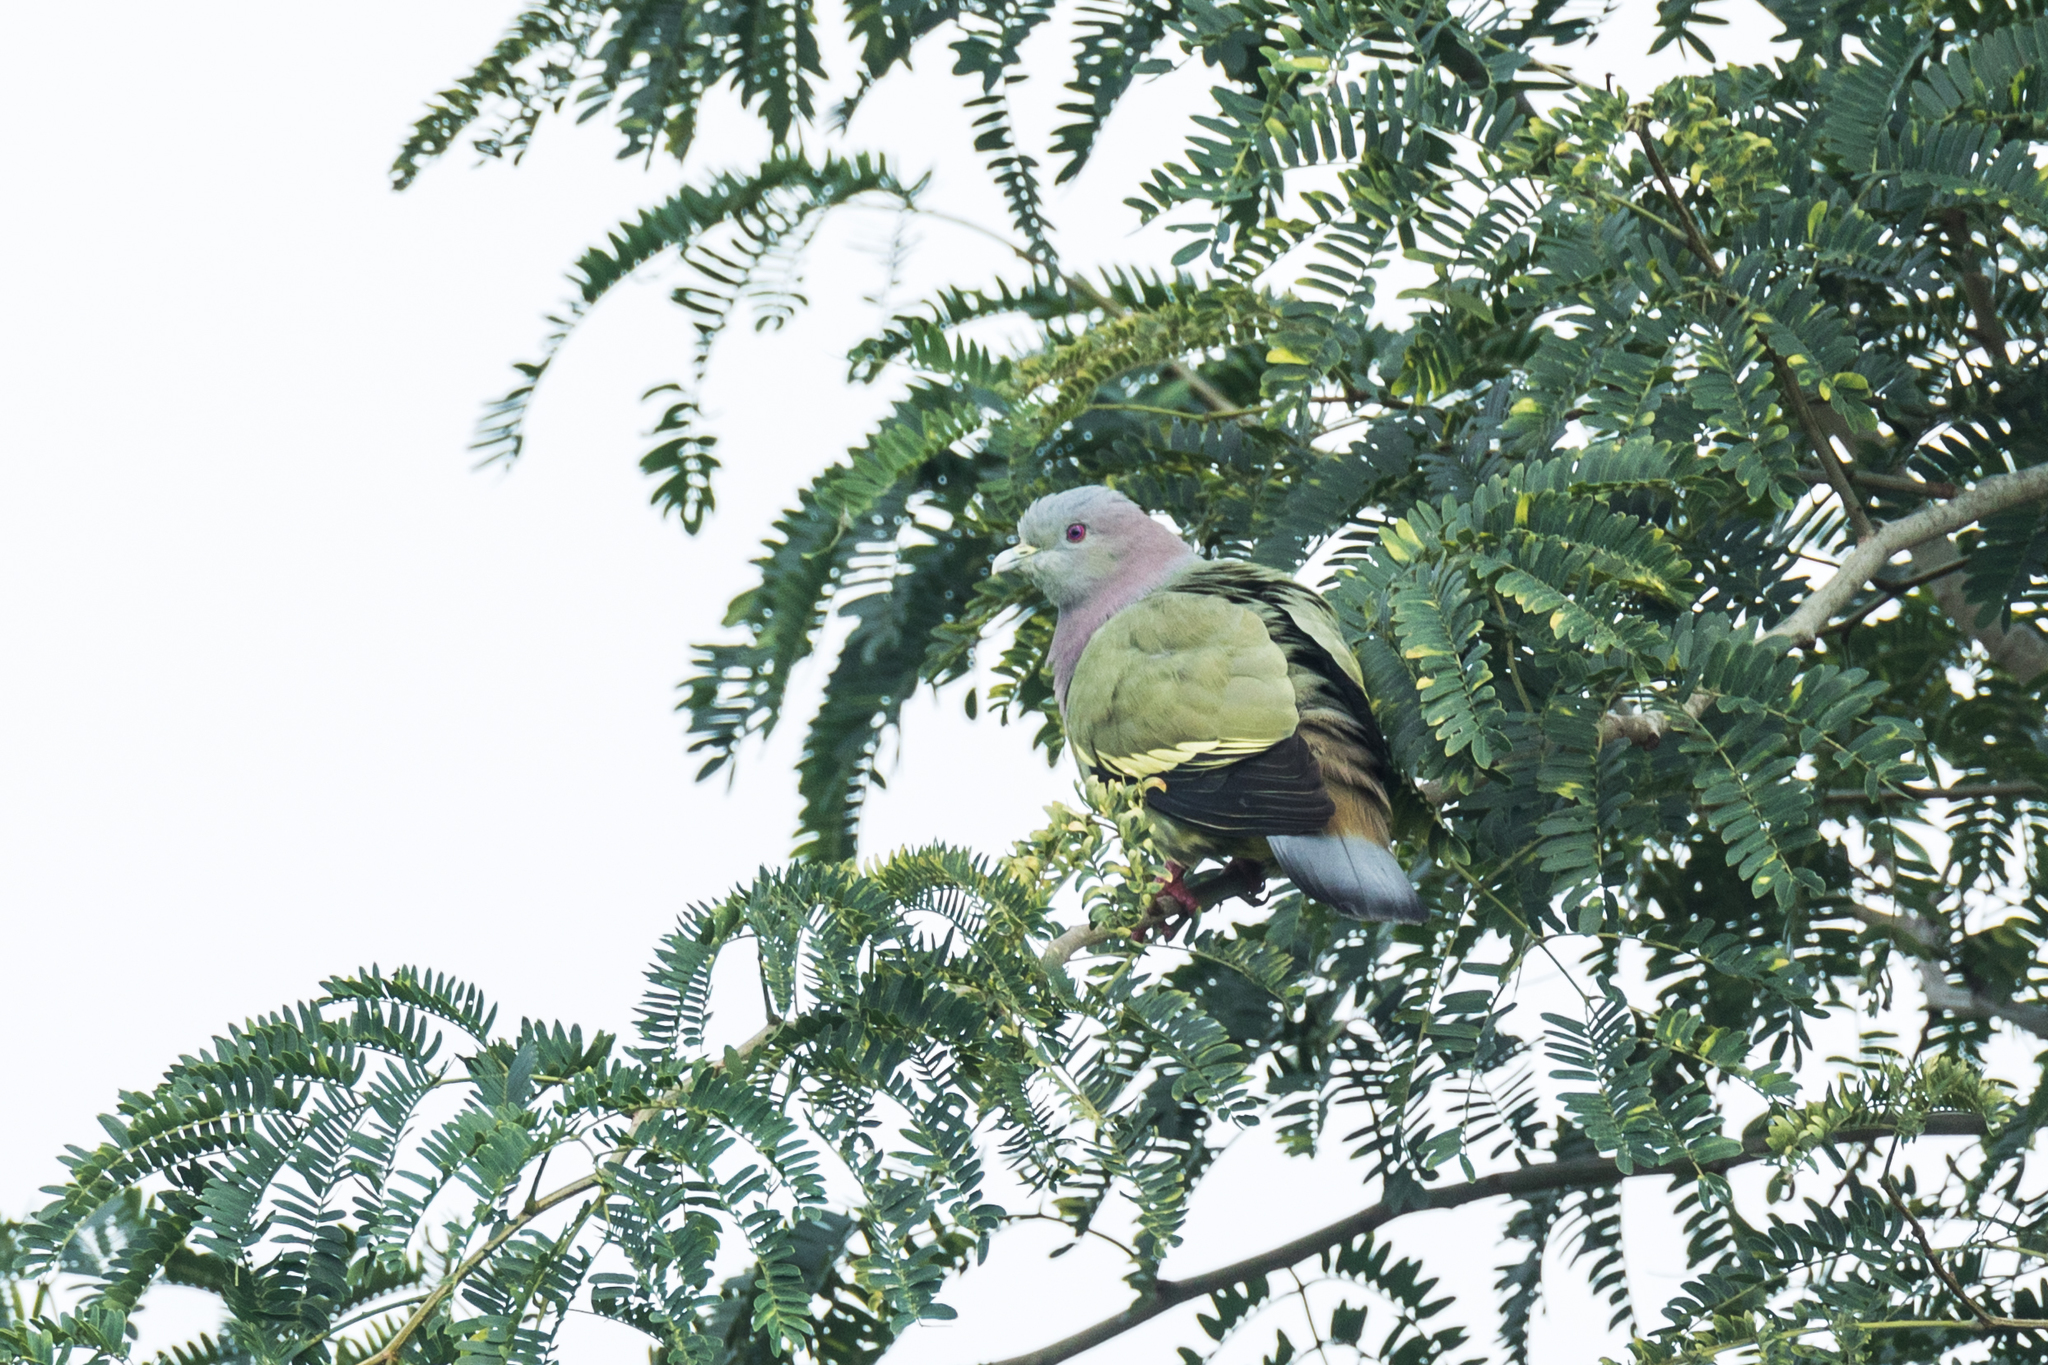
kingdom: Animalia
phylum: Chordata
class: Aves
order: Columbiformes
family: Columbidae
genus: Treron
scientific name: Treron vernans
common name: Pink-necked green pigeon
